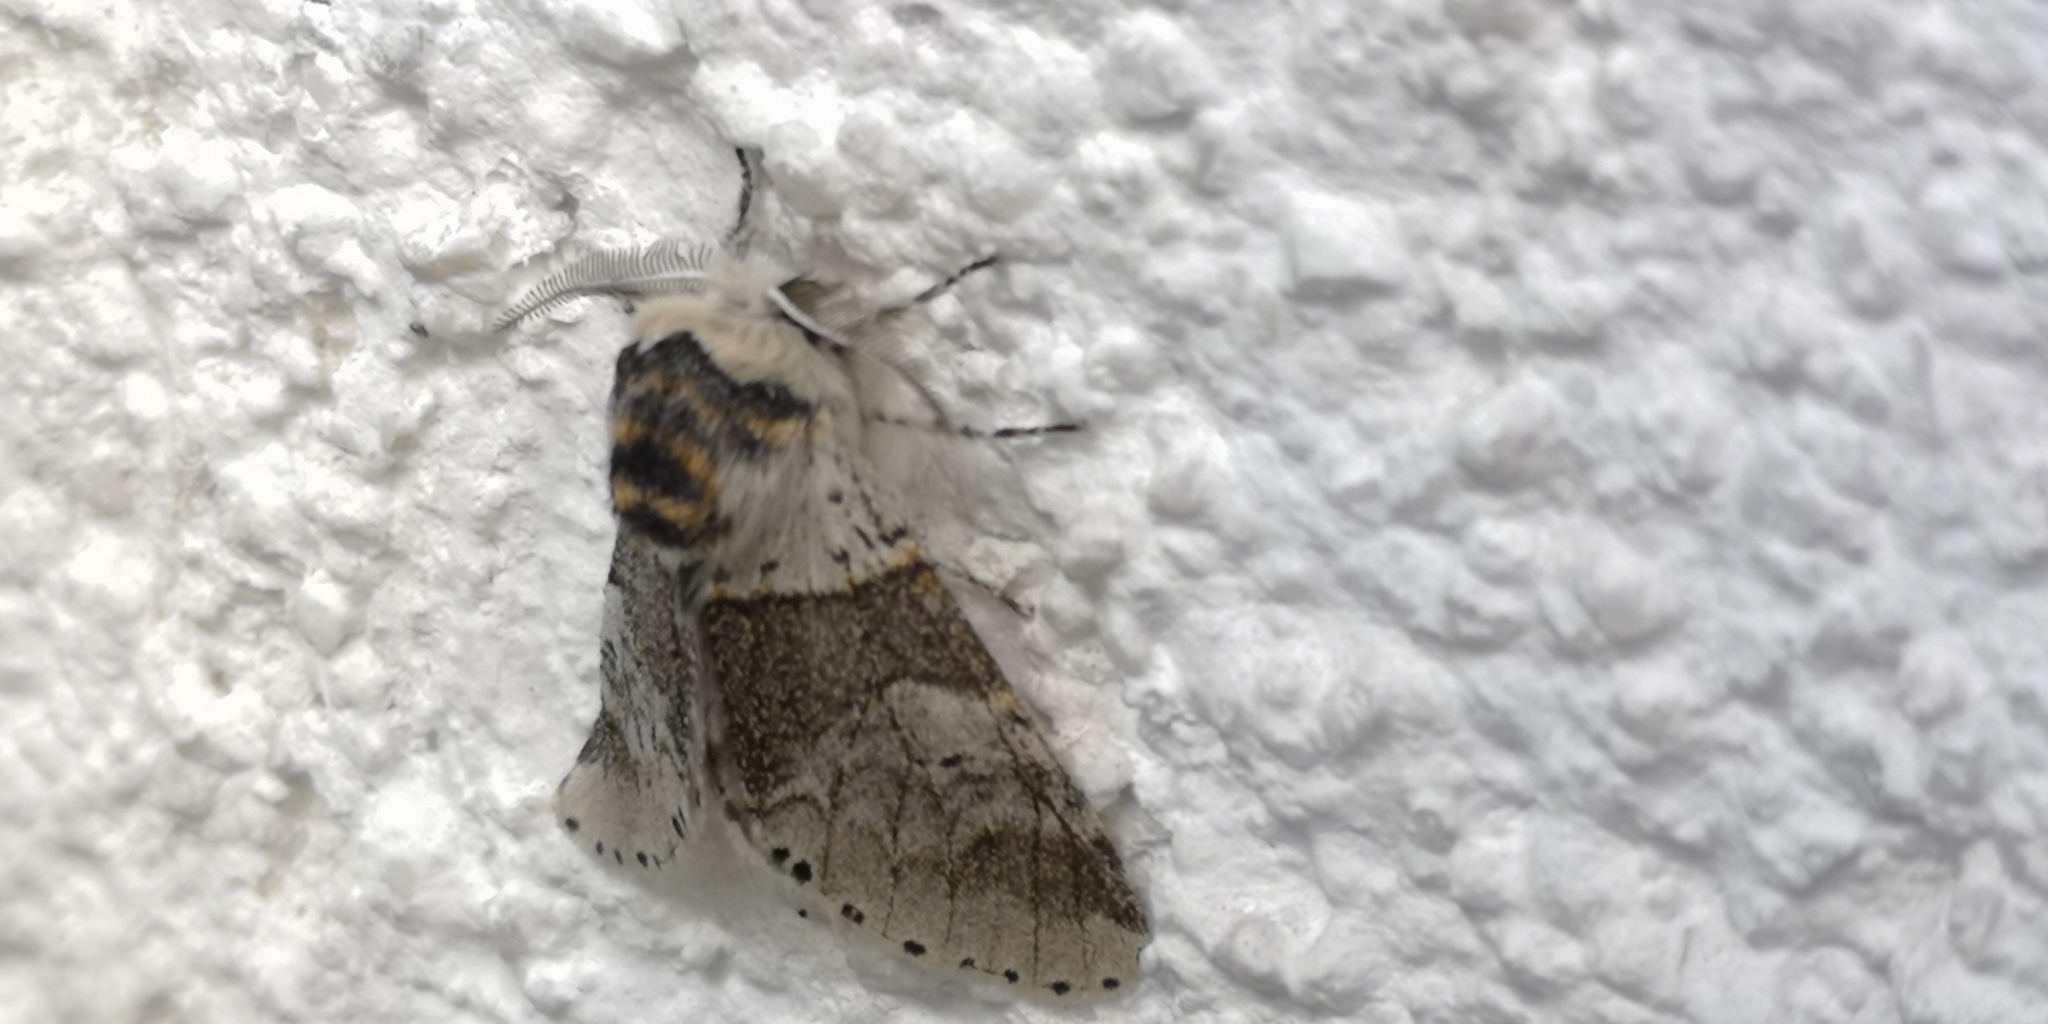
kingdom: Animalia
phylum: Arthropoda
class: Insecta
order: Lepidoptera
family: Notodontidae
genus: Furcula
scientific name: Furcula bifida
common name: Poplar kitten
